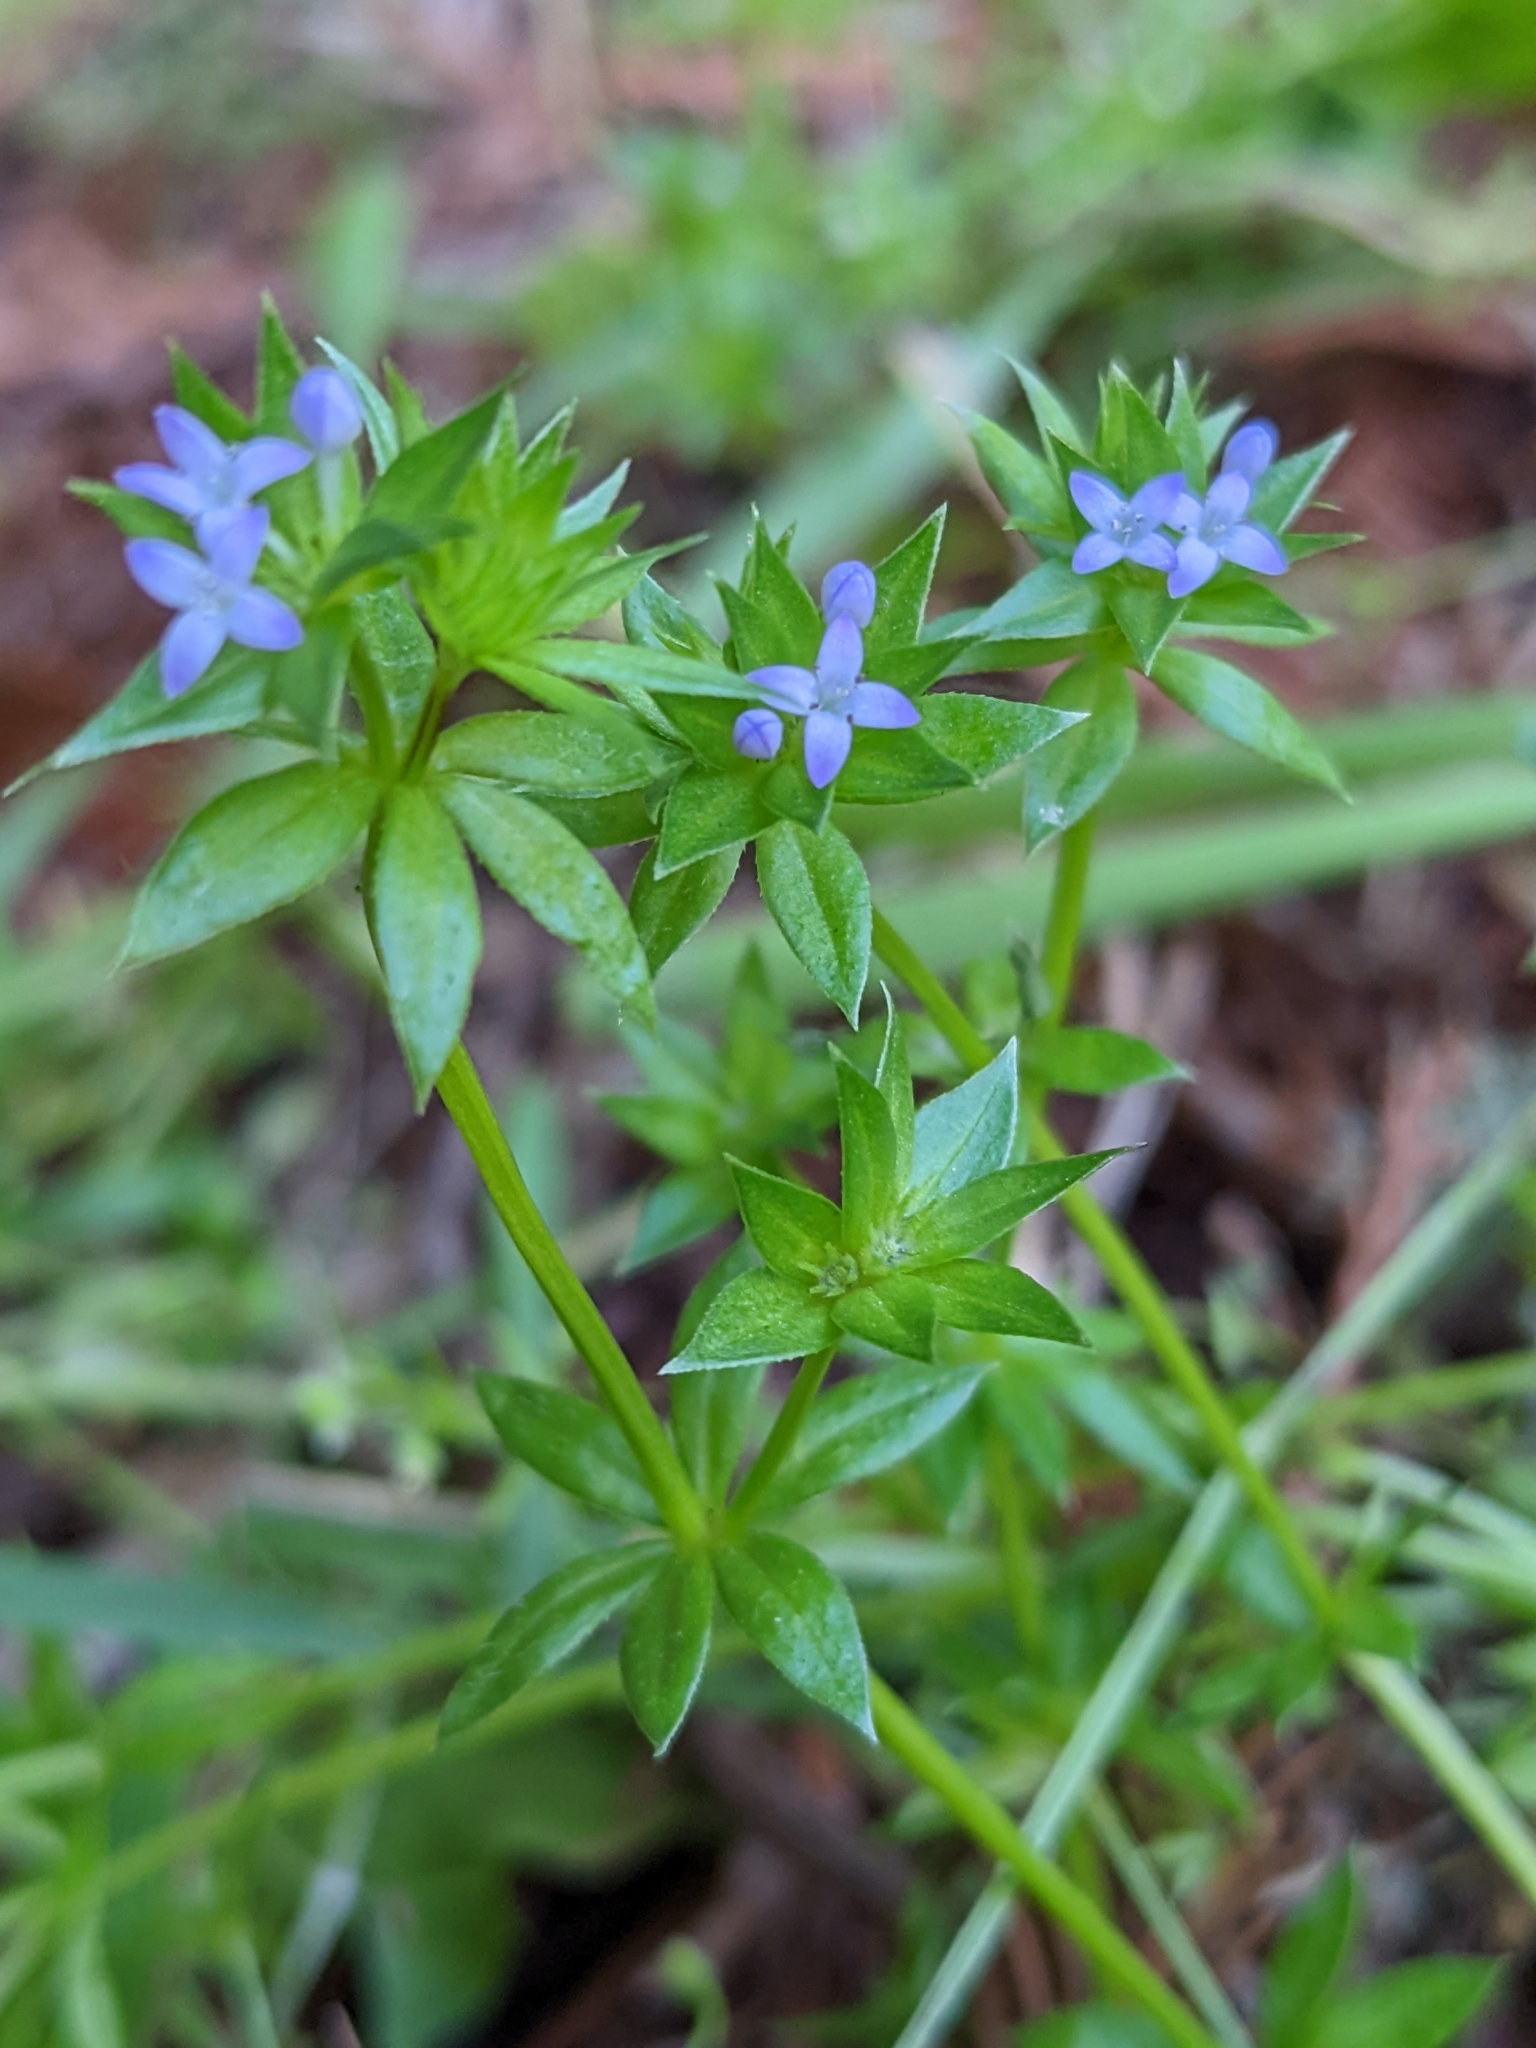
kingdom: Plantae
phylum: Tracheophyta
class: Magnoliopsida
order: Gentianales
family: Rubiaceae
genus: Sherardia
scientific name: Sherardia arvensis
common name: Field madder
